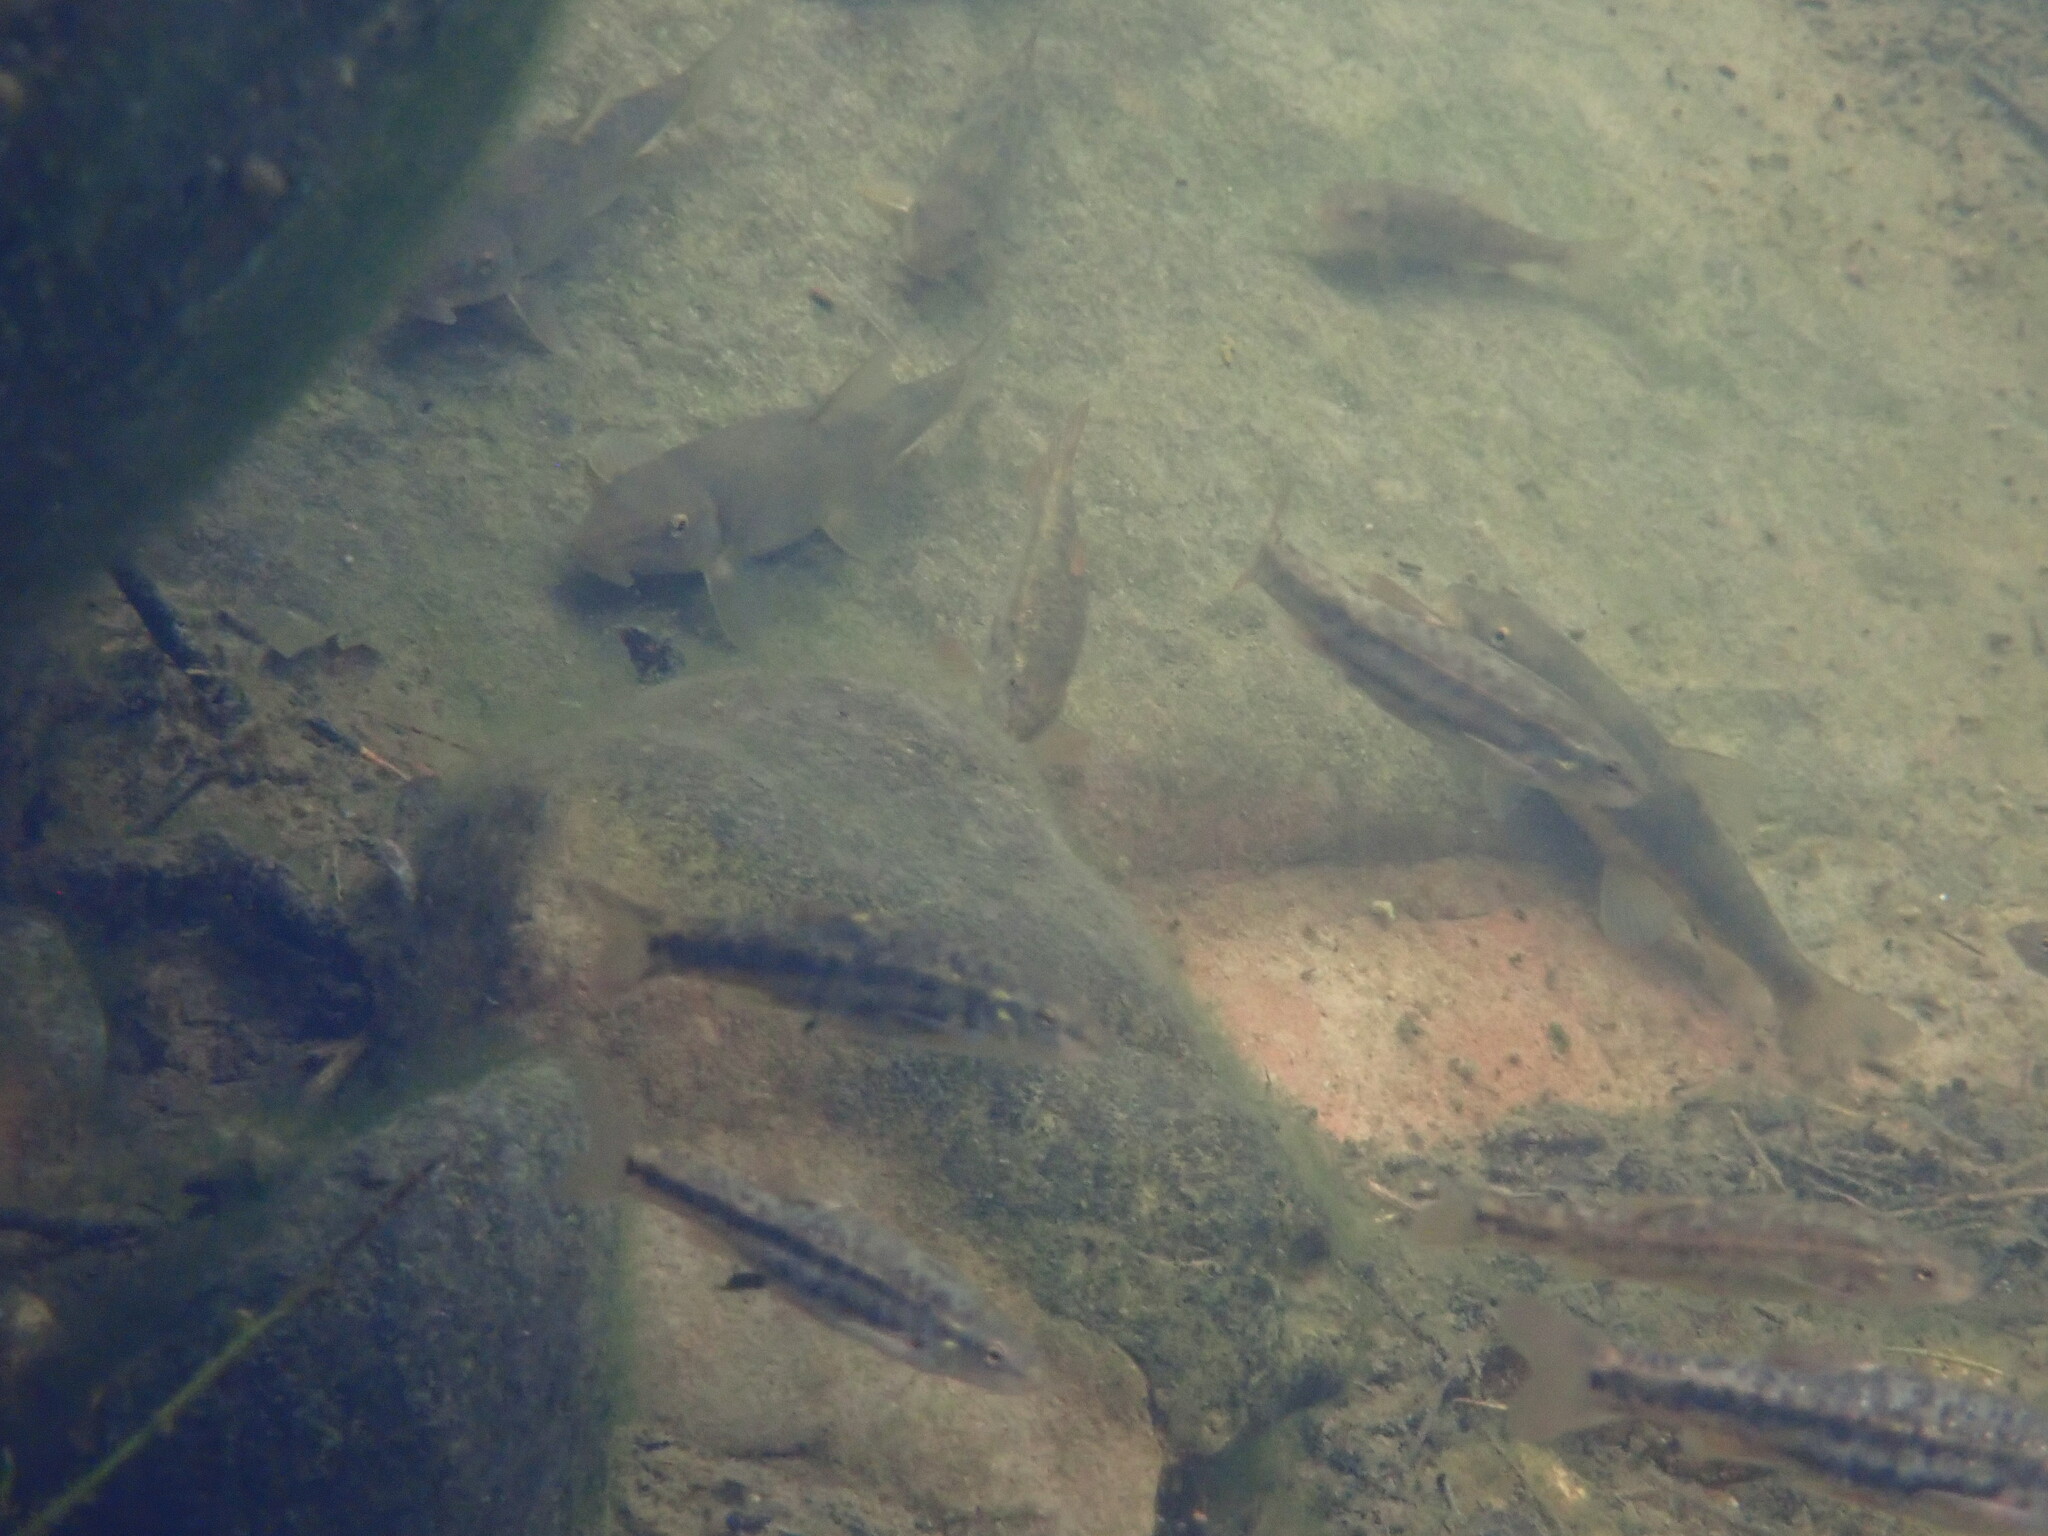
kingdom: Animalia
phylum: Chordata
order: Cypriniformes
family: Cyprinidae
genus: Rhinichthys
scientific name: Rhinichthys osculus
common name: Speckled dace
